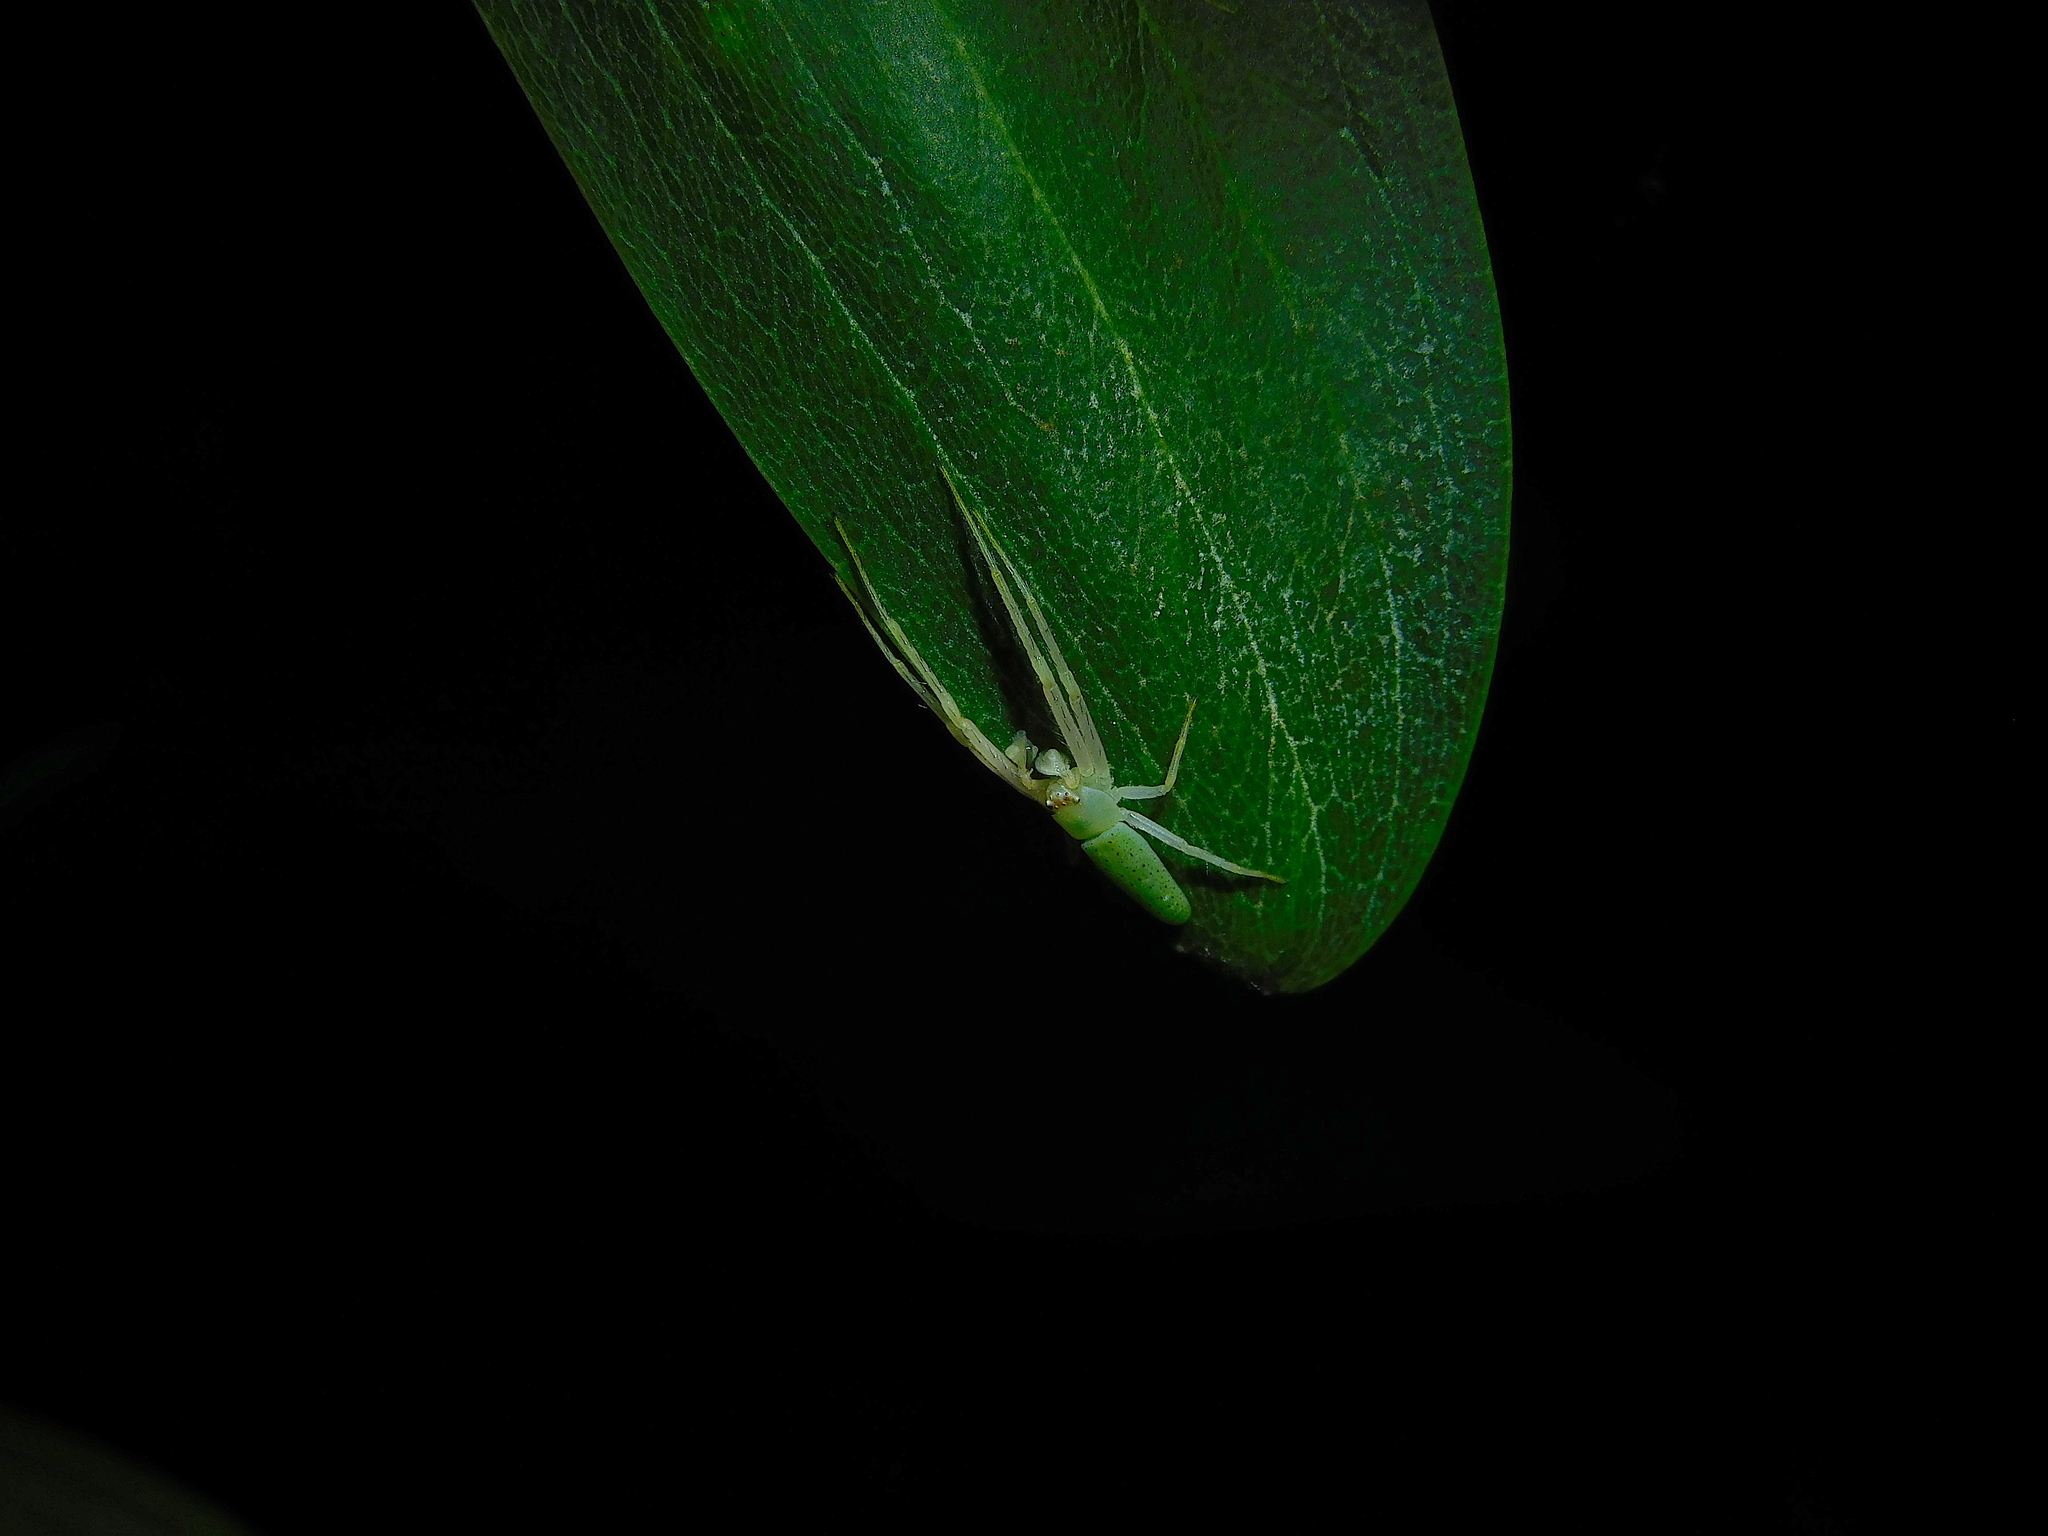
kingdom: Animalia
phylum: Arthropoda
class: Arachnida
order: Araneae
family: Thomisidae
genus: Cetratus
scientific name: Cetratus rubropunctatus
